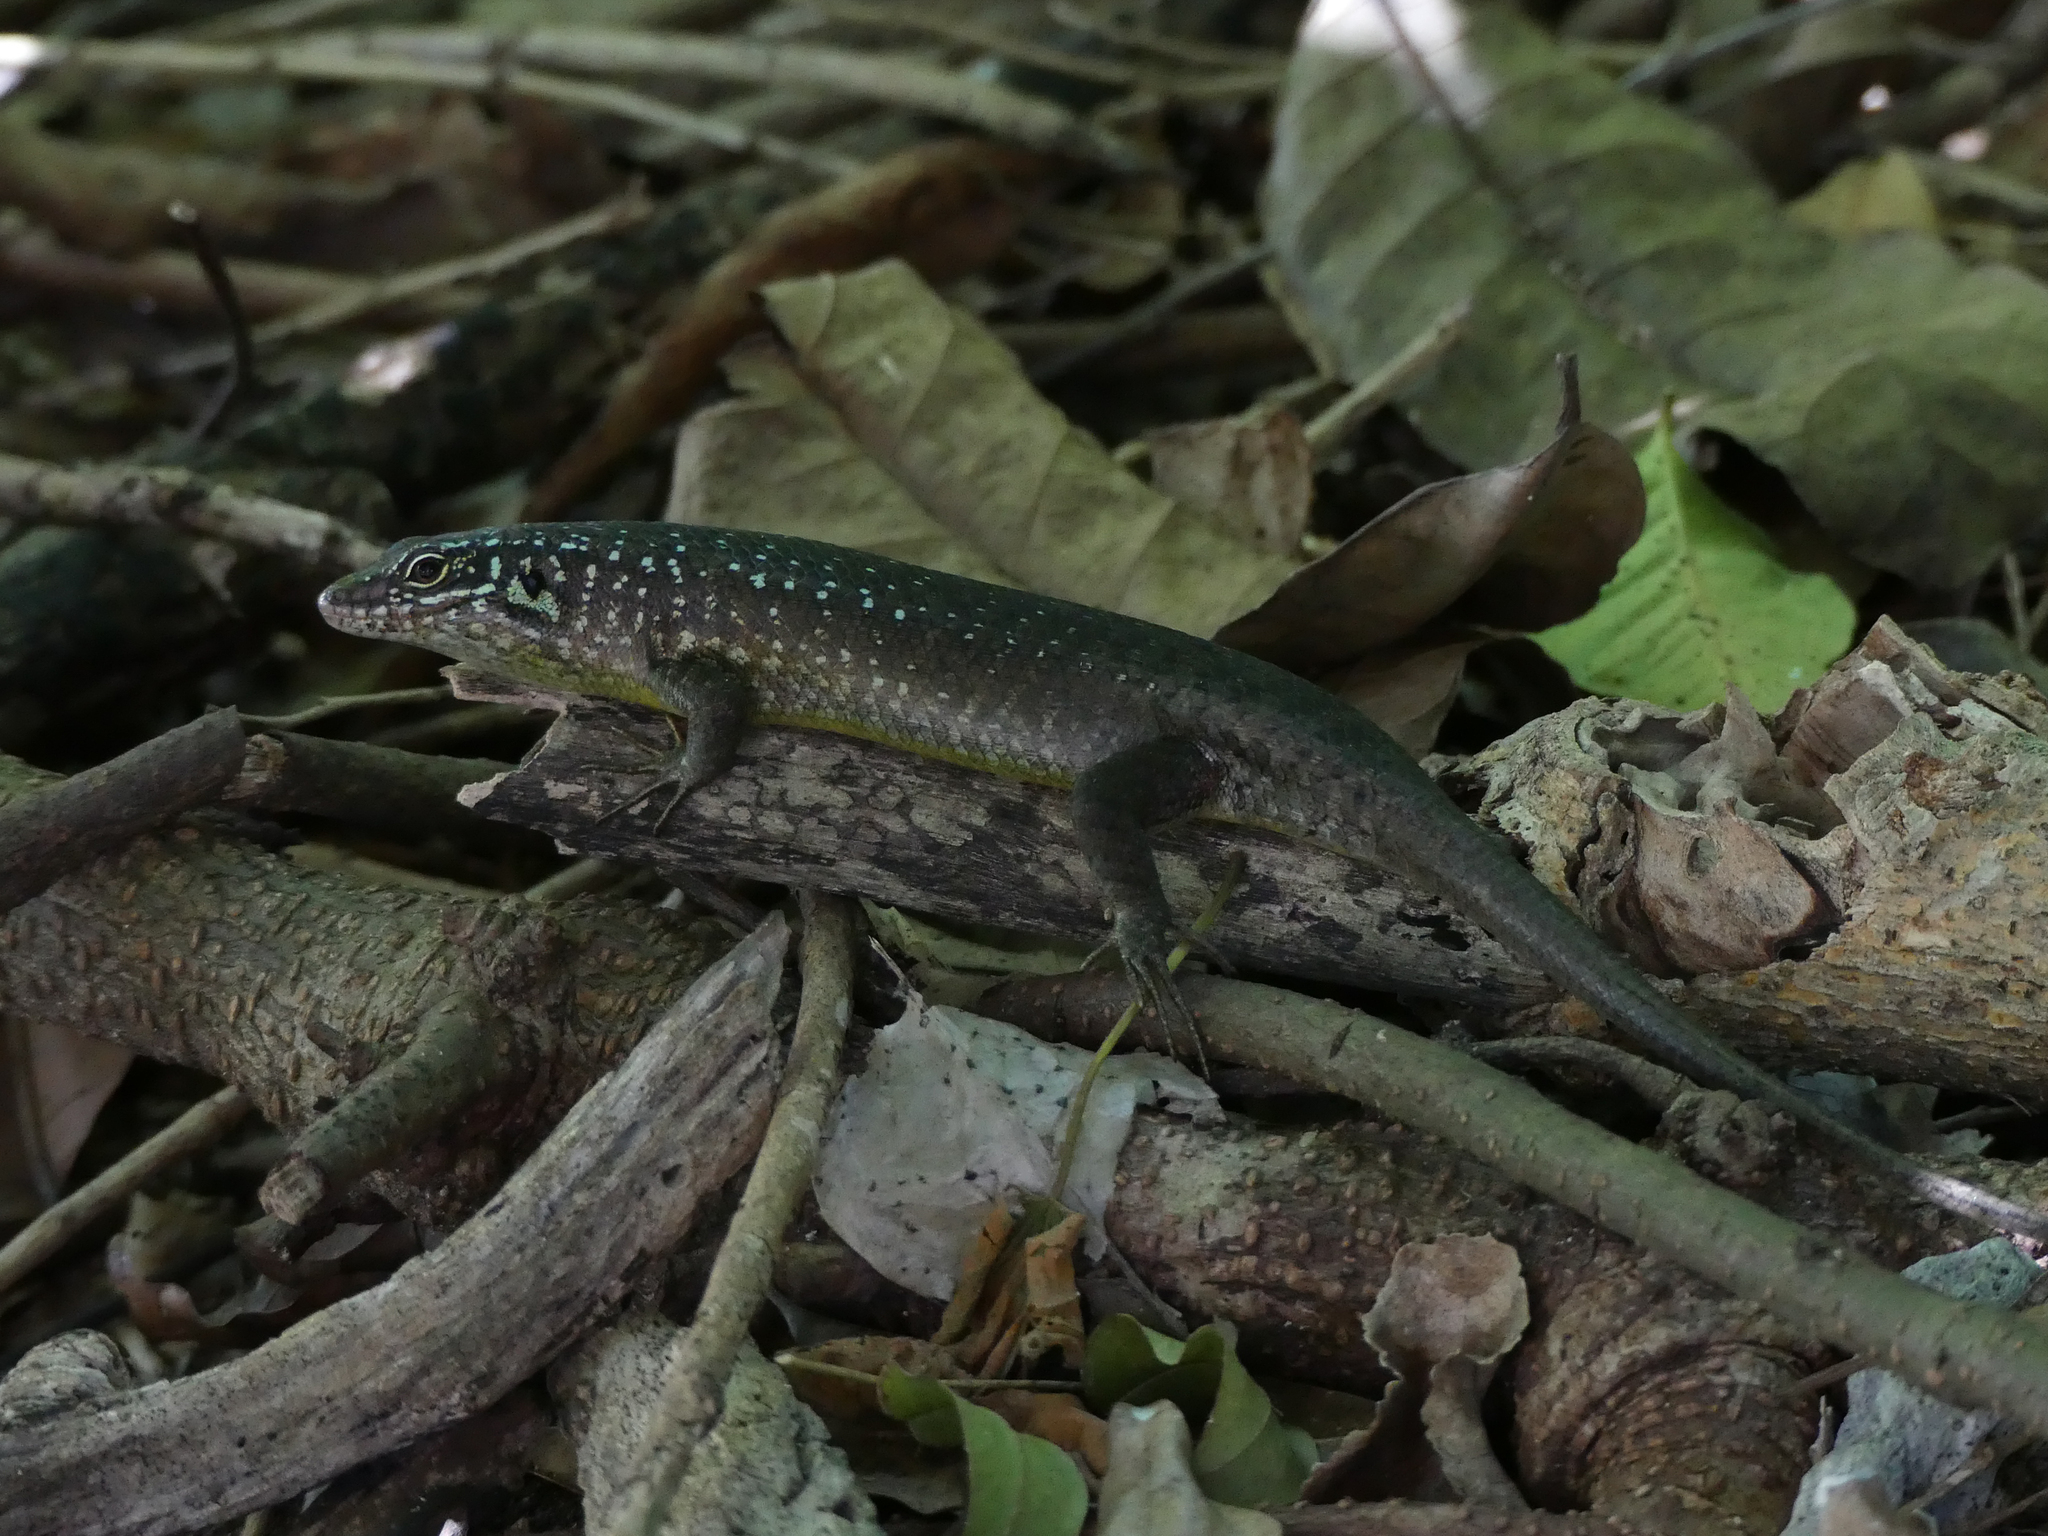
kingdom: Animalia
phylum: Chordata
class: Squamata
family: Scincidae
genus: Trachylepis
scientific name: Trachylepis comorensis
